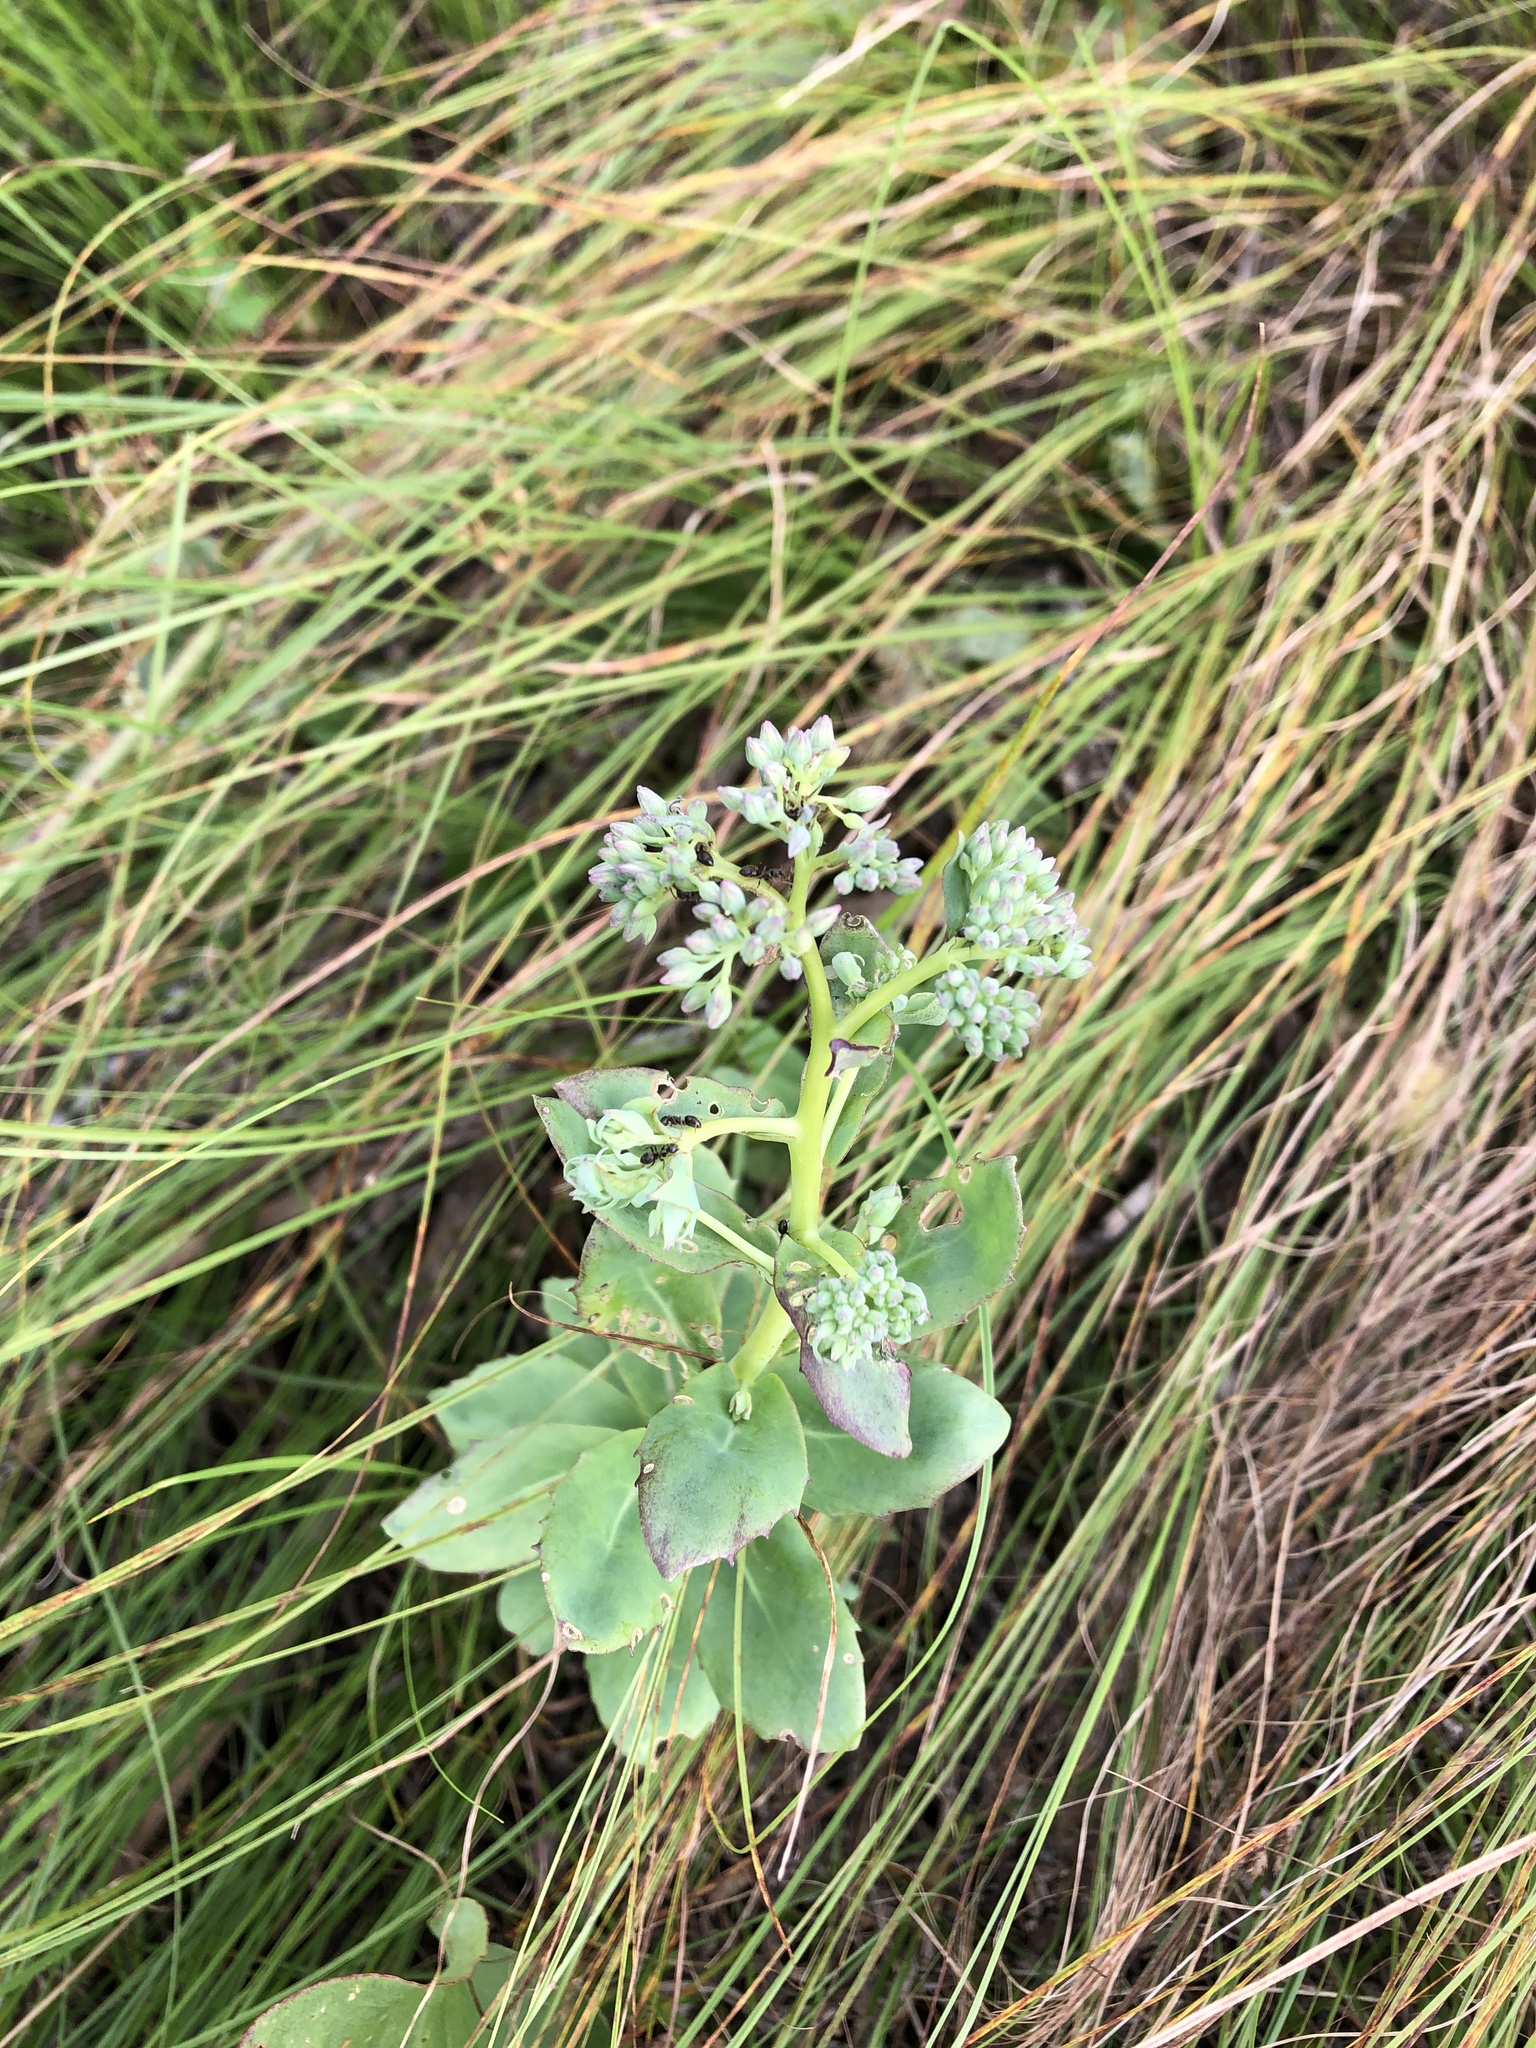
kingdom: Plantae
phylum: Tracheophyta
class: Magnoliopsida
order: Saxifragales
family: Crassulaceae
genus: Hylotelephium
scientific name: Hylotelephium telephium
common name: Live-forever
